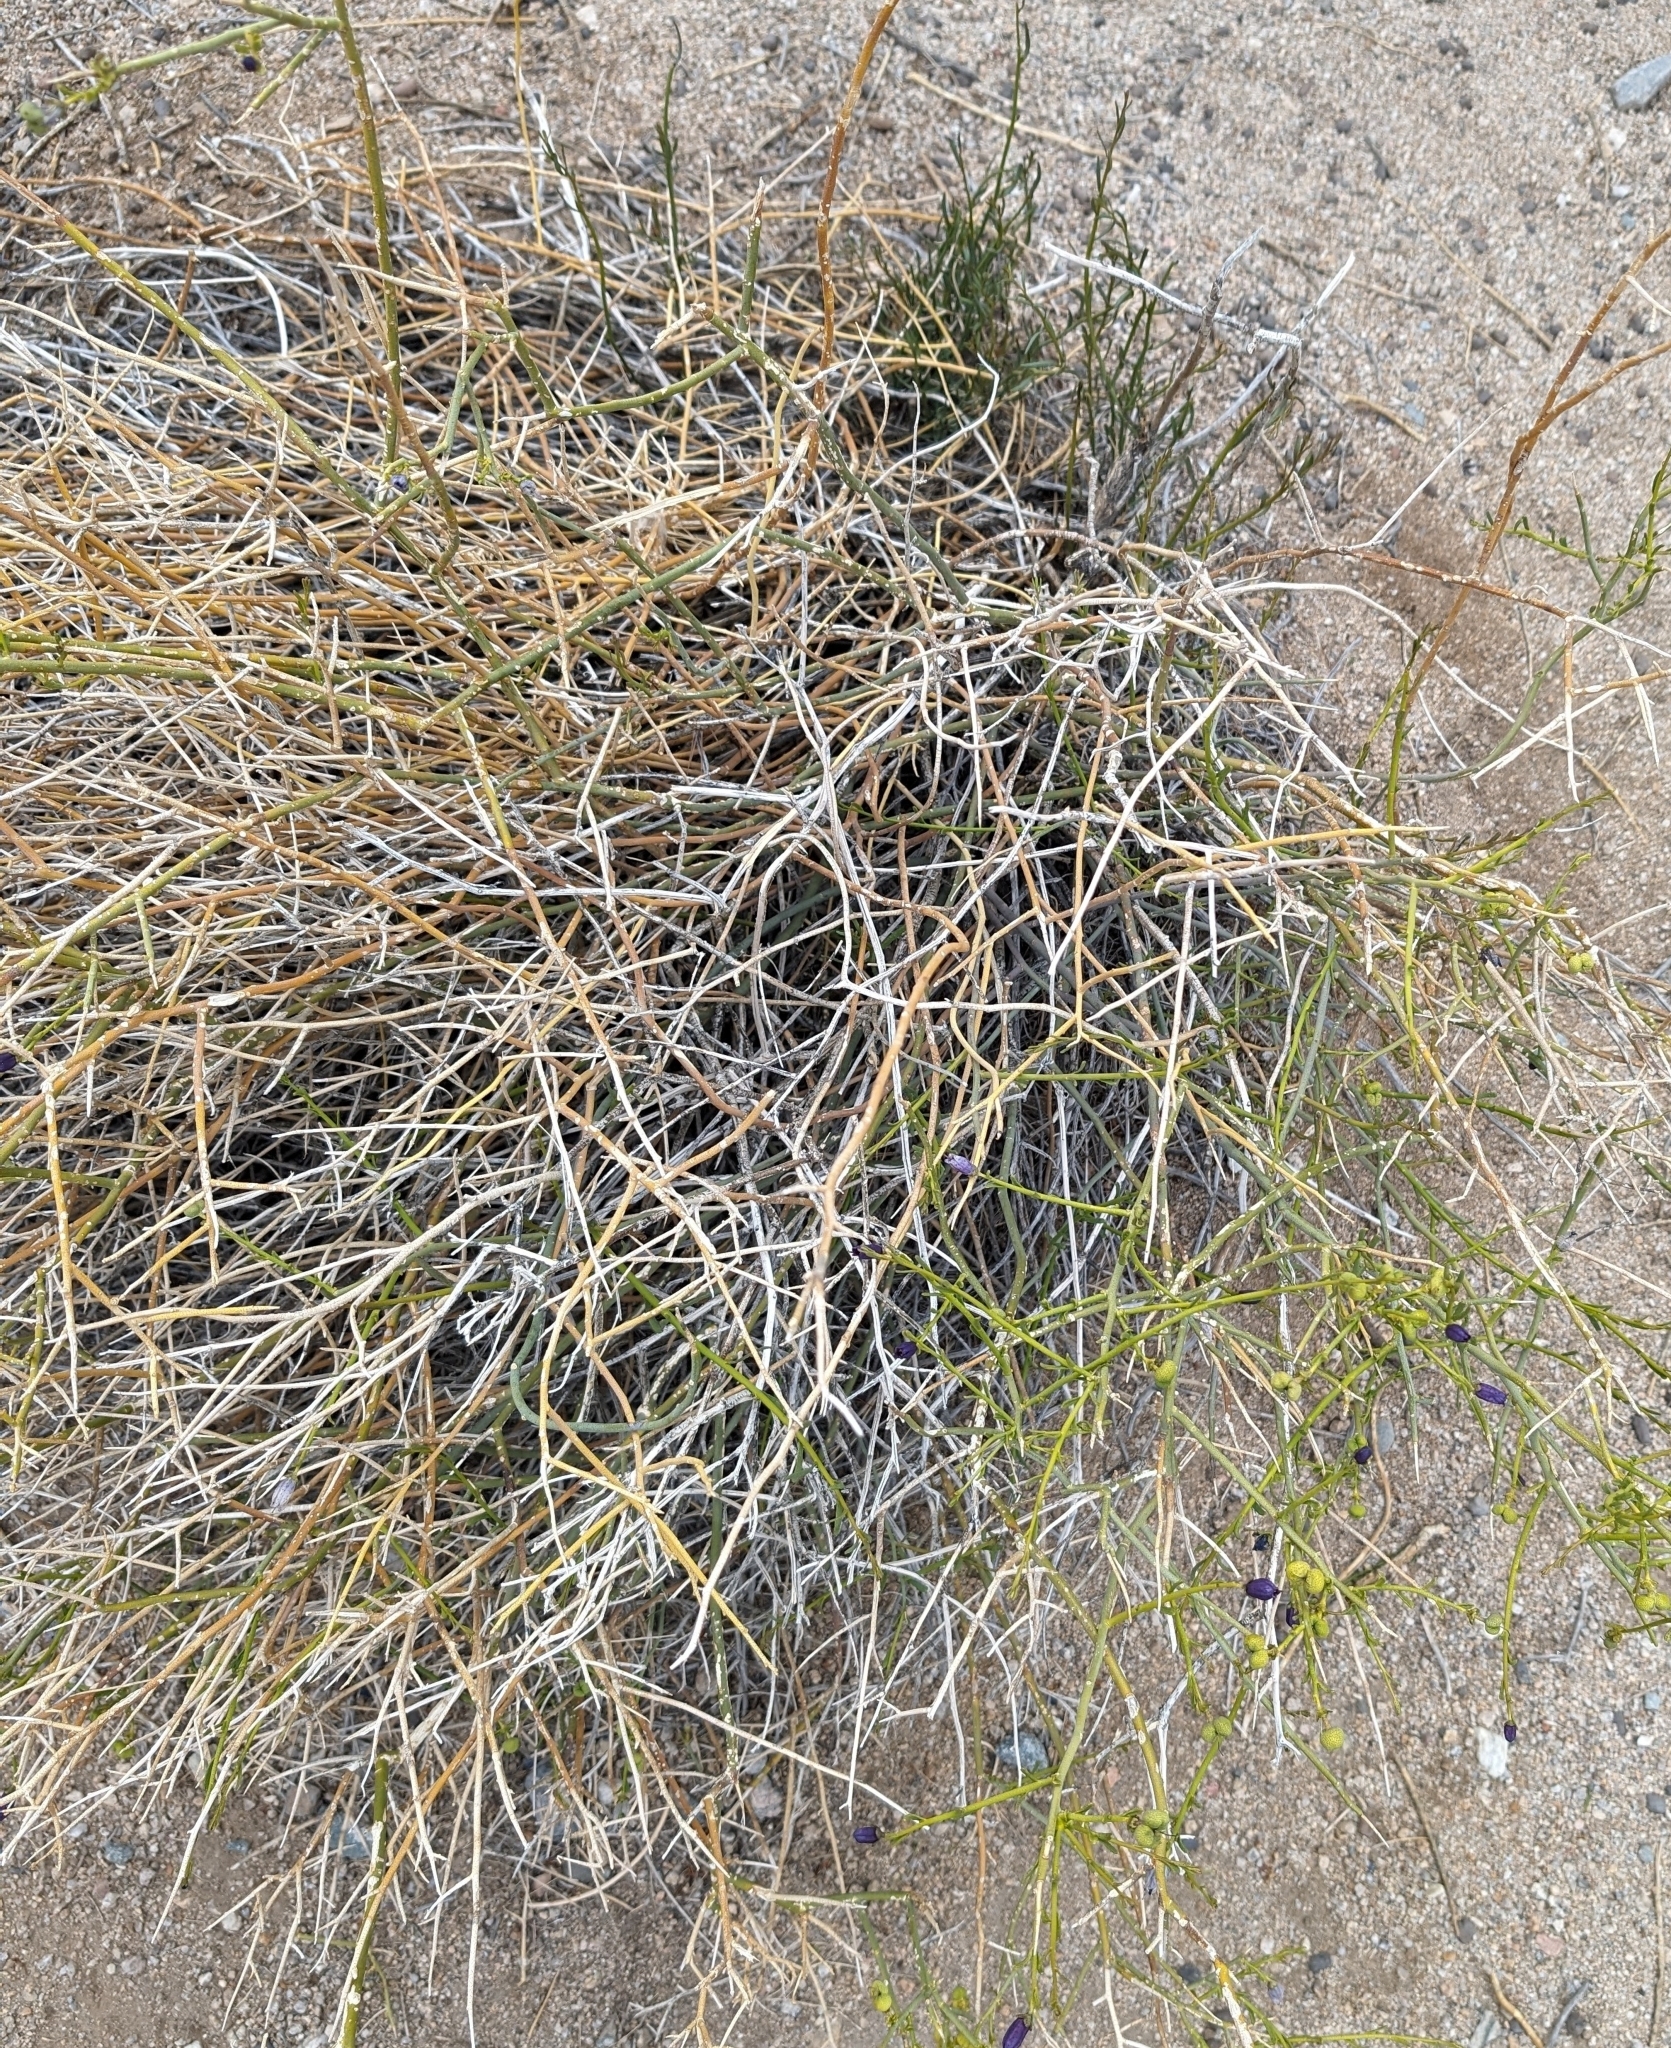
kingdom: Plantae
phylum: Tracheophyta
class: Magnoliopsida
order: Sapindales
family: Rutaceae
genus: Thamnosma
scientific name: Thamnosma montana
